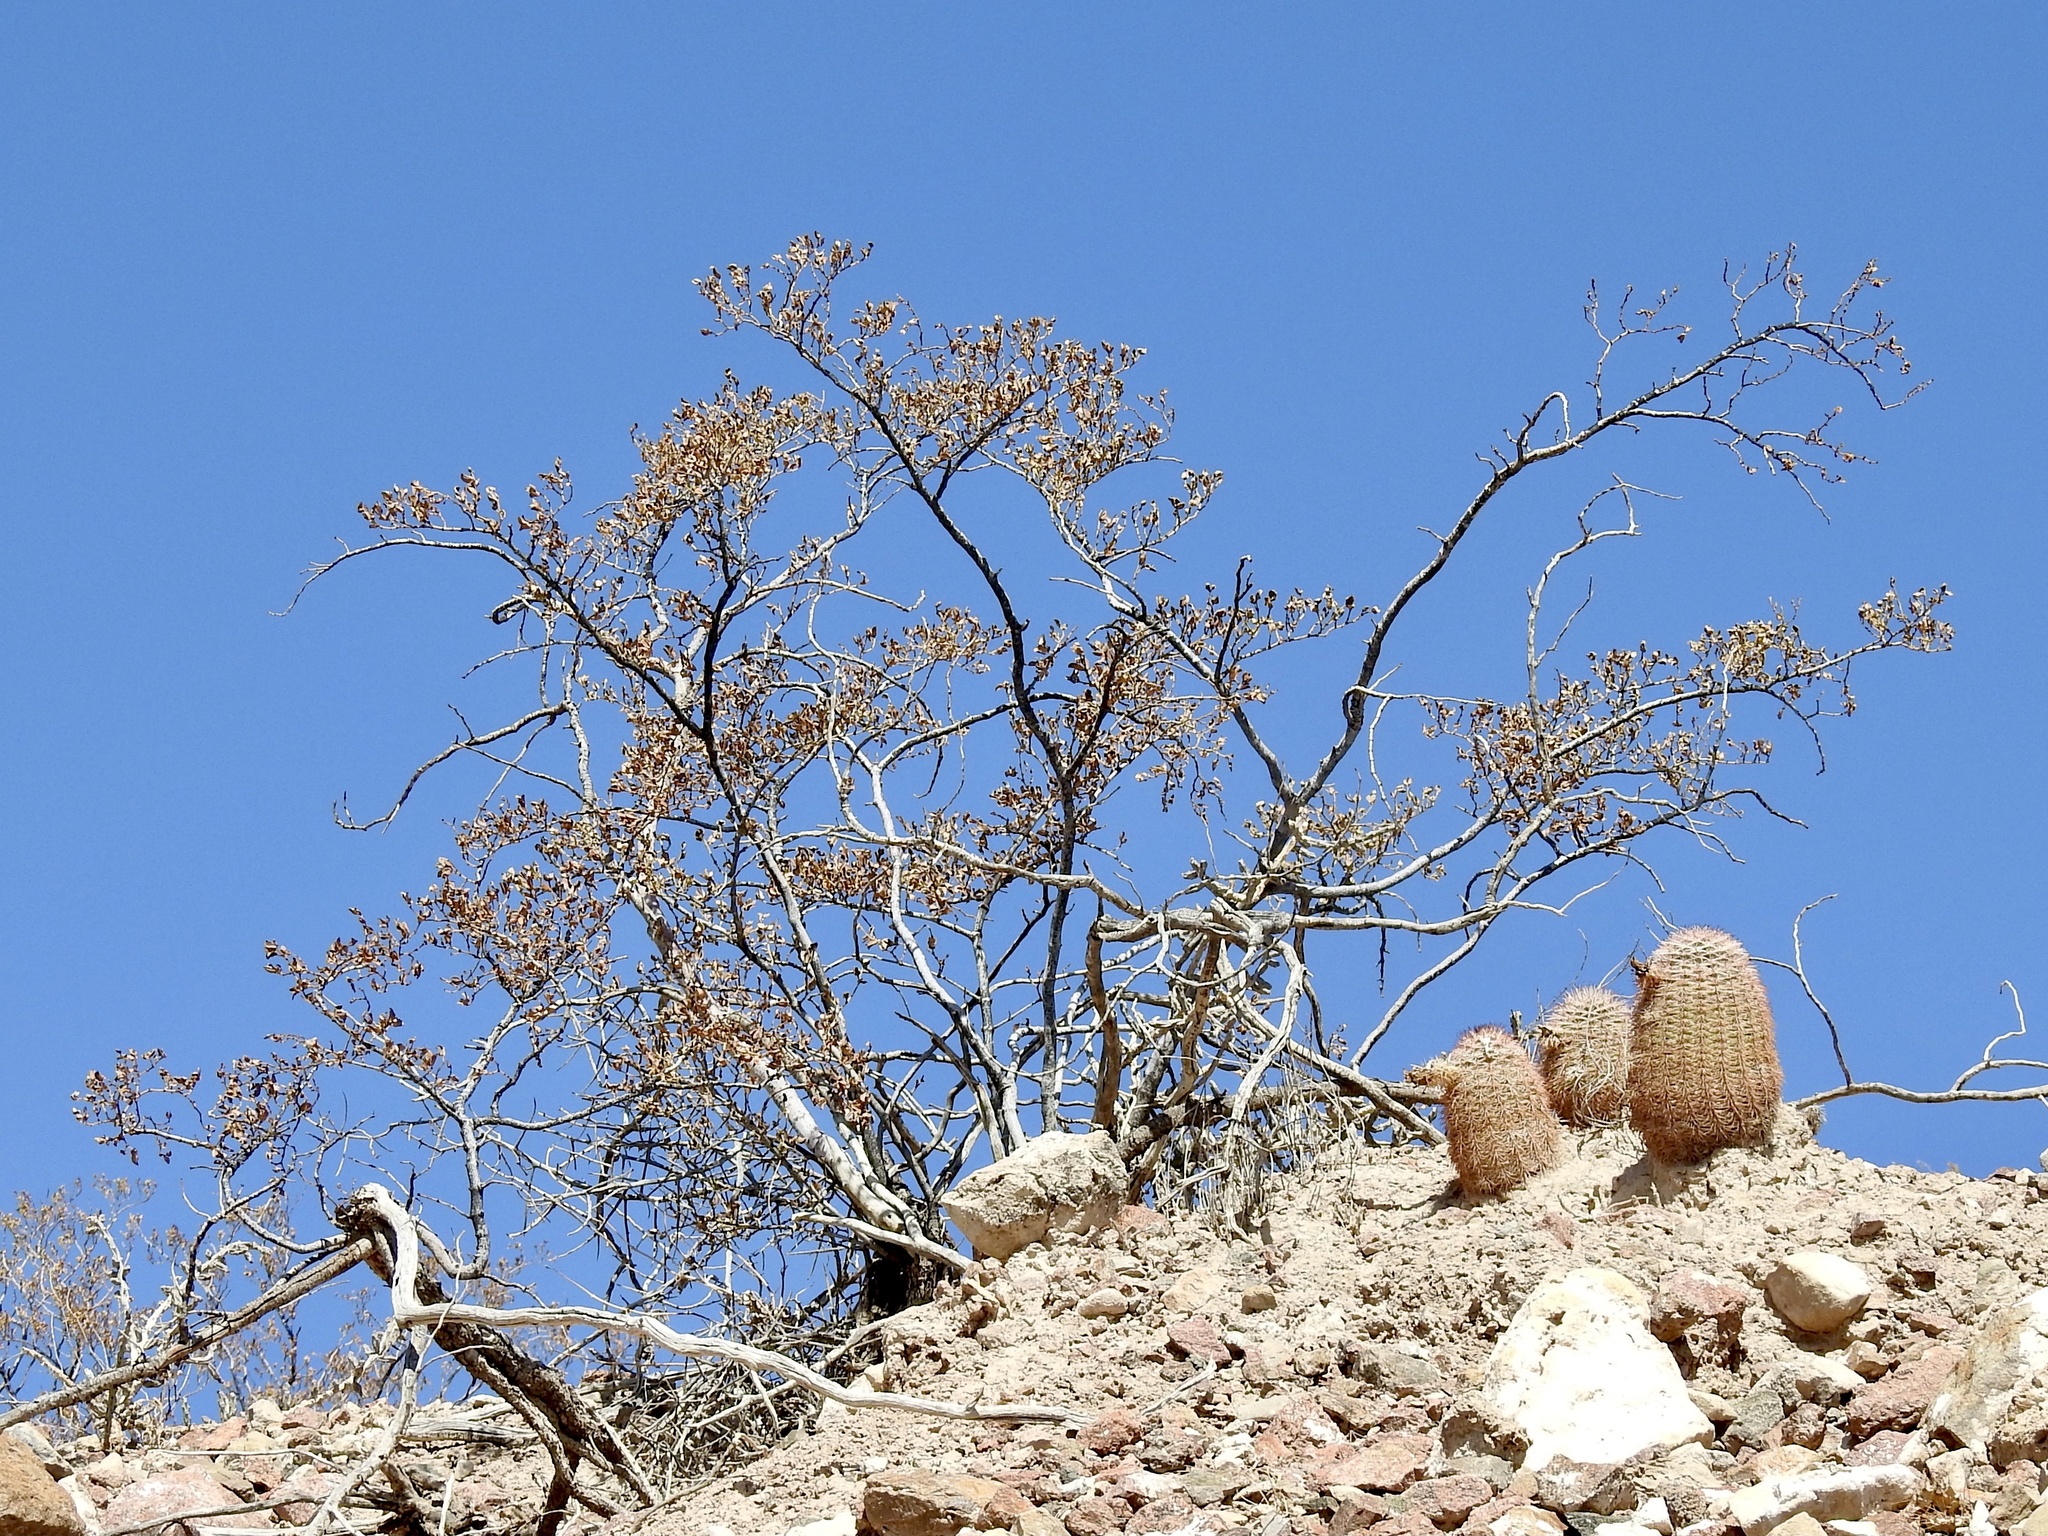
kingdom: Plantae
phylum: Tracheophyta
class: Magnoliopsida
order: Zygophyllales
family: Zygophyllaceae
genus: Larrea
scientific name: Larrea tridentata
